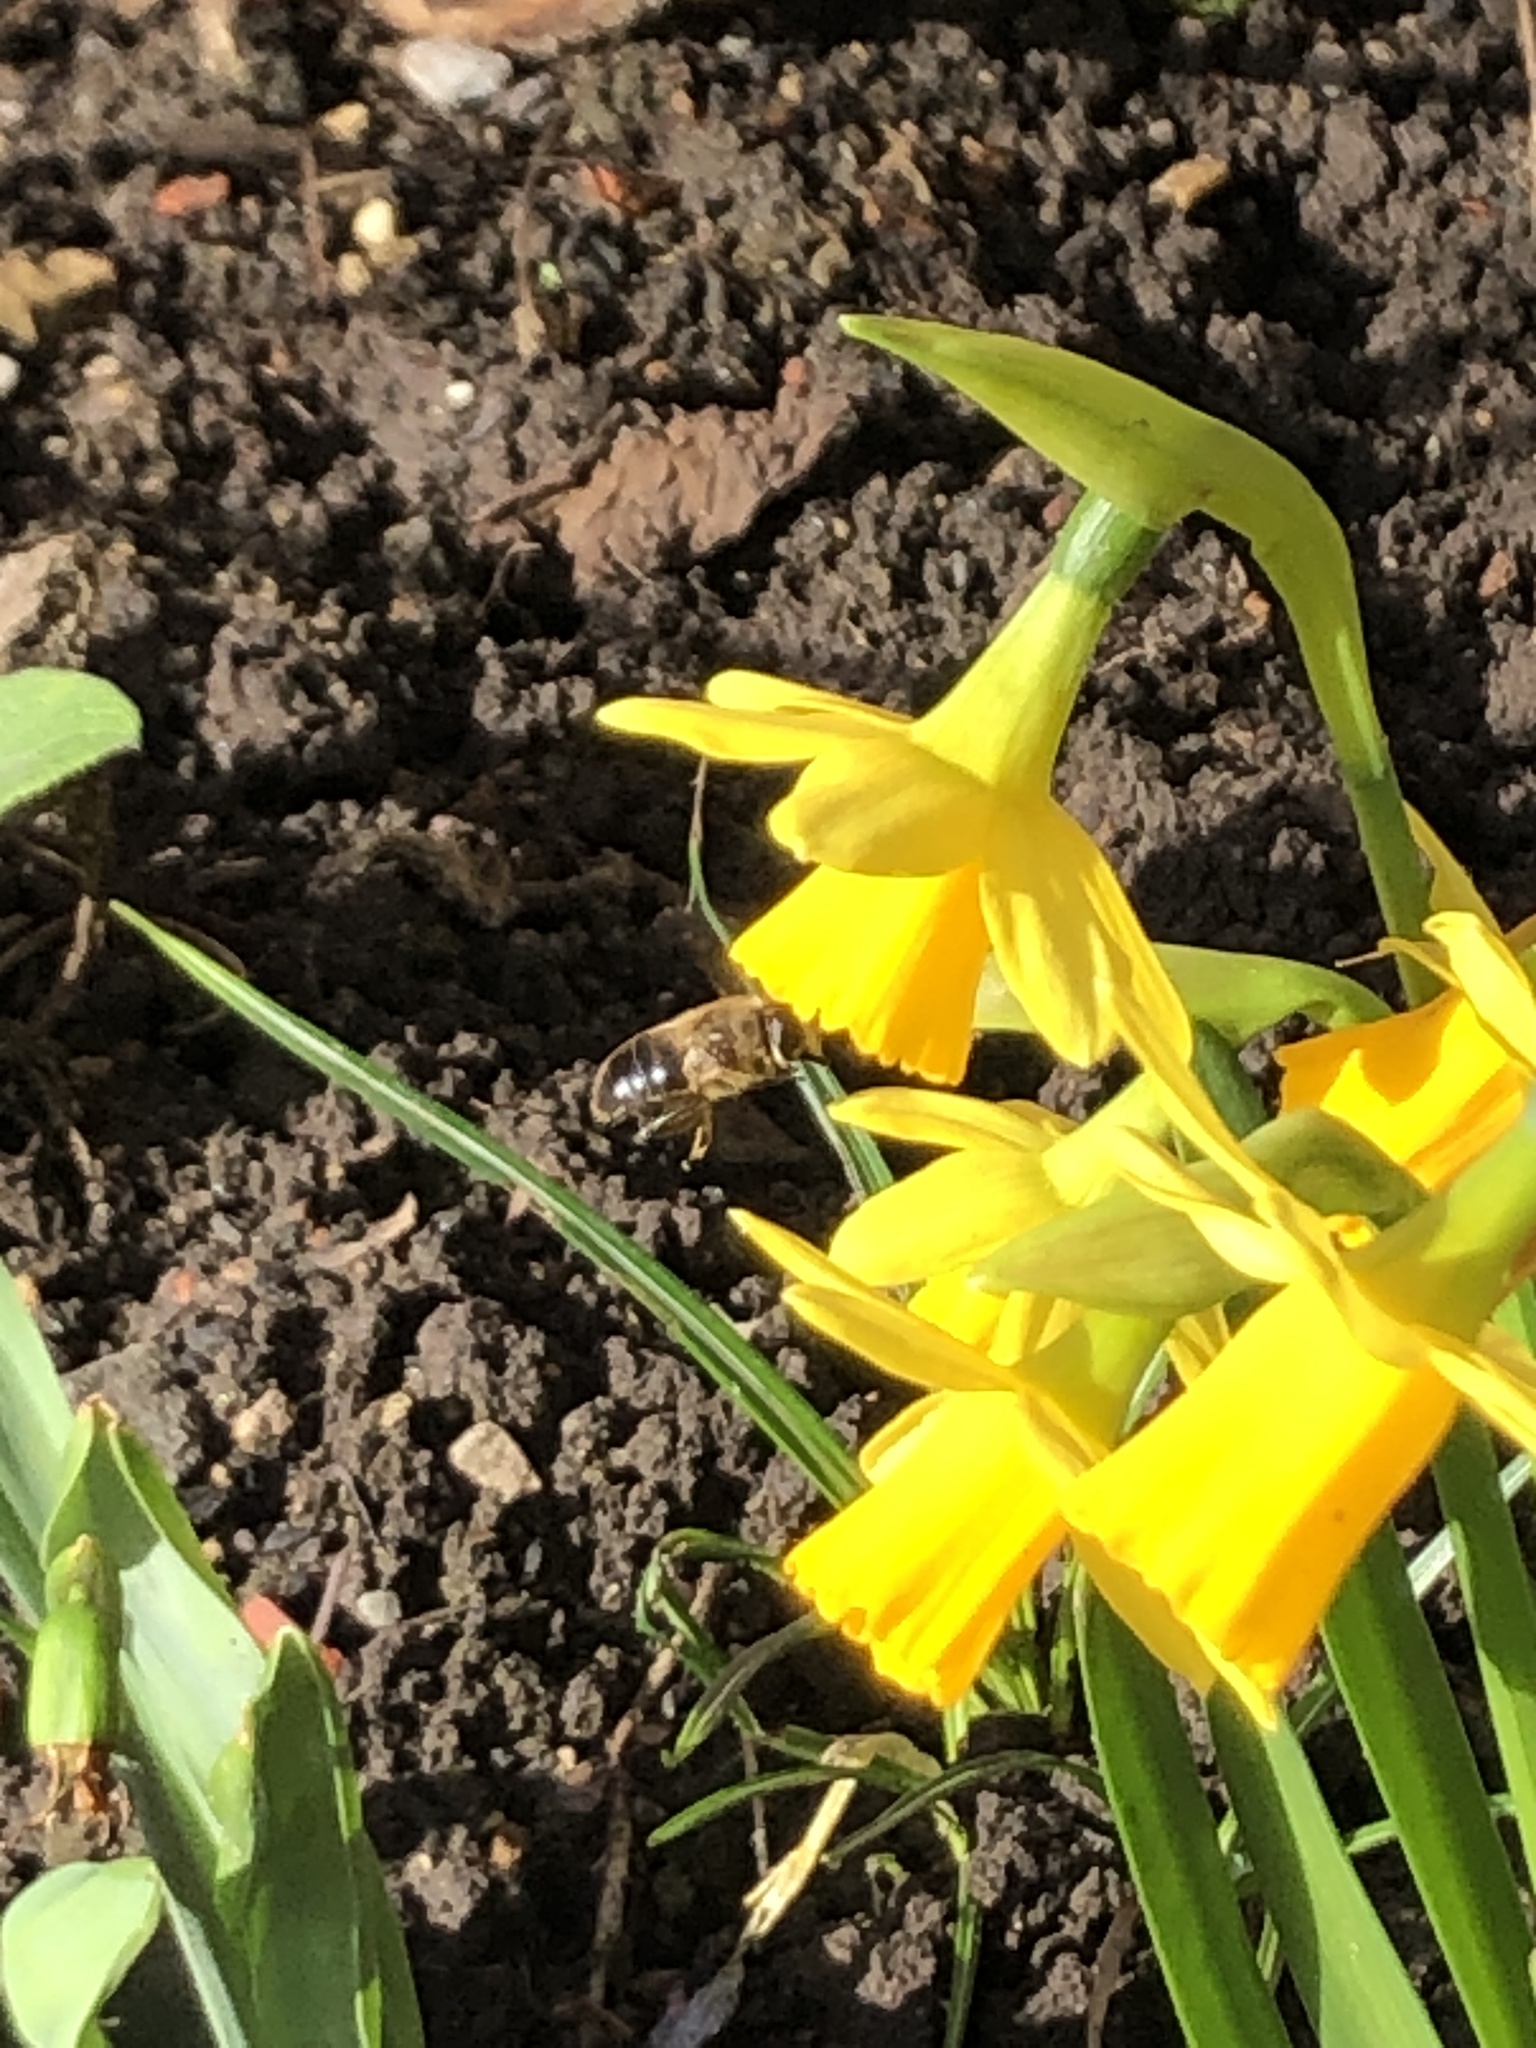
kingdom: Animalia
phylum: Arthropoda
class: Insecta
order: Diptera
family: Syrphidae
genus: Eristalis
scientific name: Eristalis tenax
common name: Drone fly
